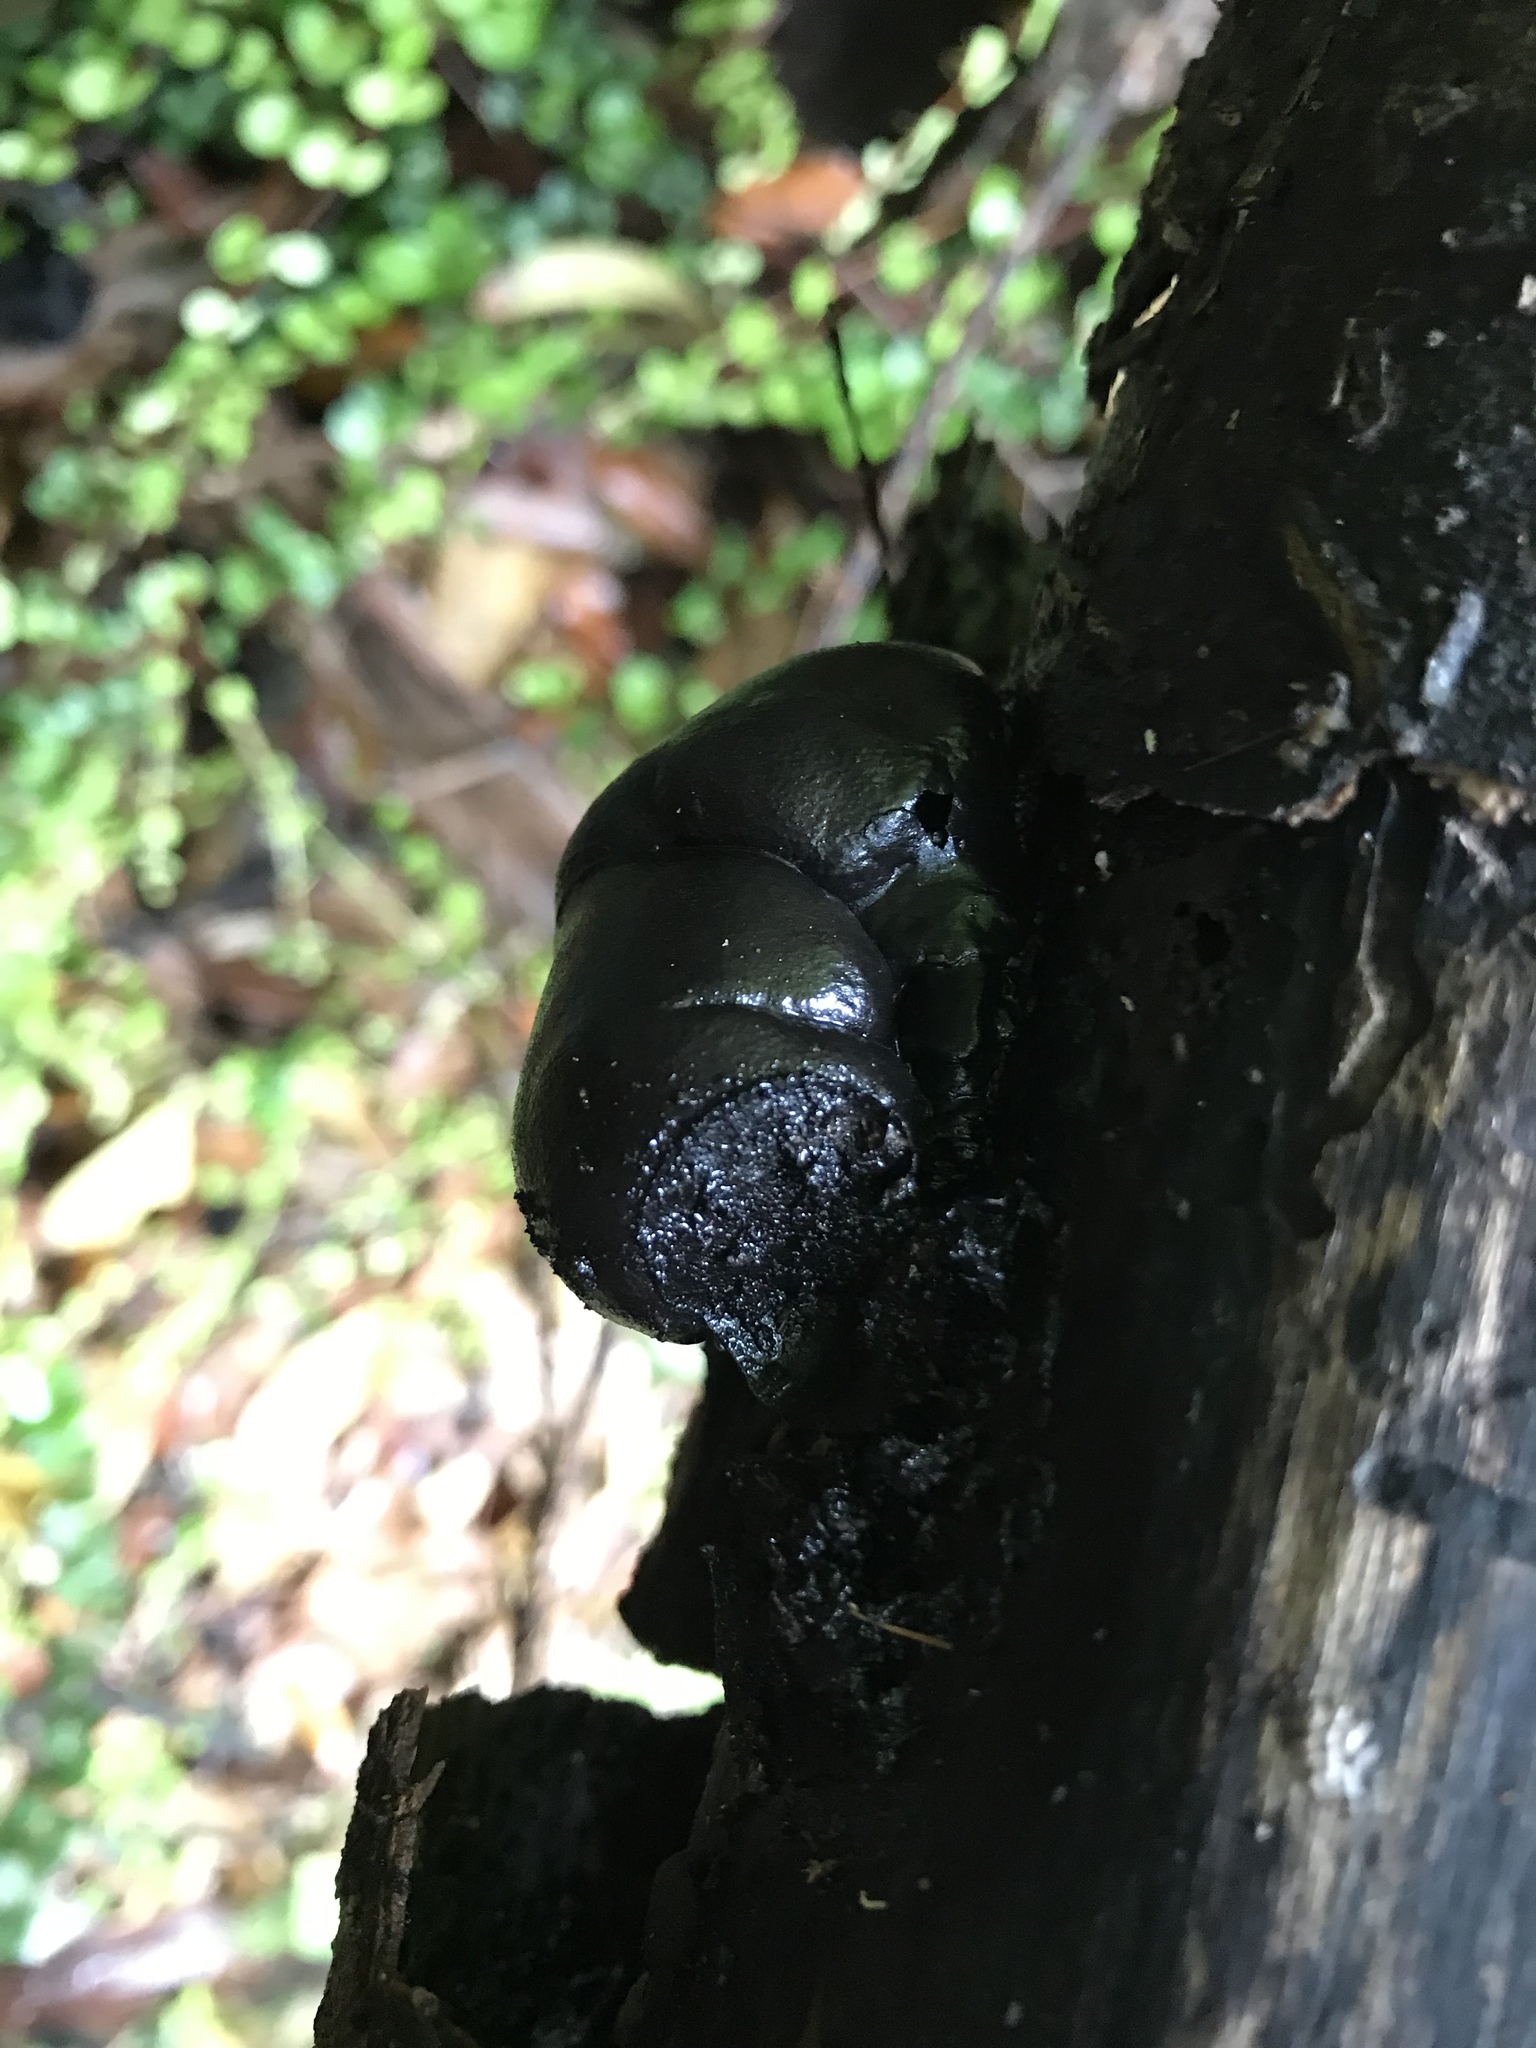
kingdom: Fungi
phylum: Ascomycota
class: Sordariomycetes
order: Xylariales
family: Hypoxylaceae
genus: Daldinia
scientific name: Daldinia
